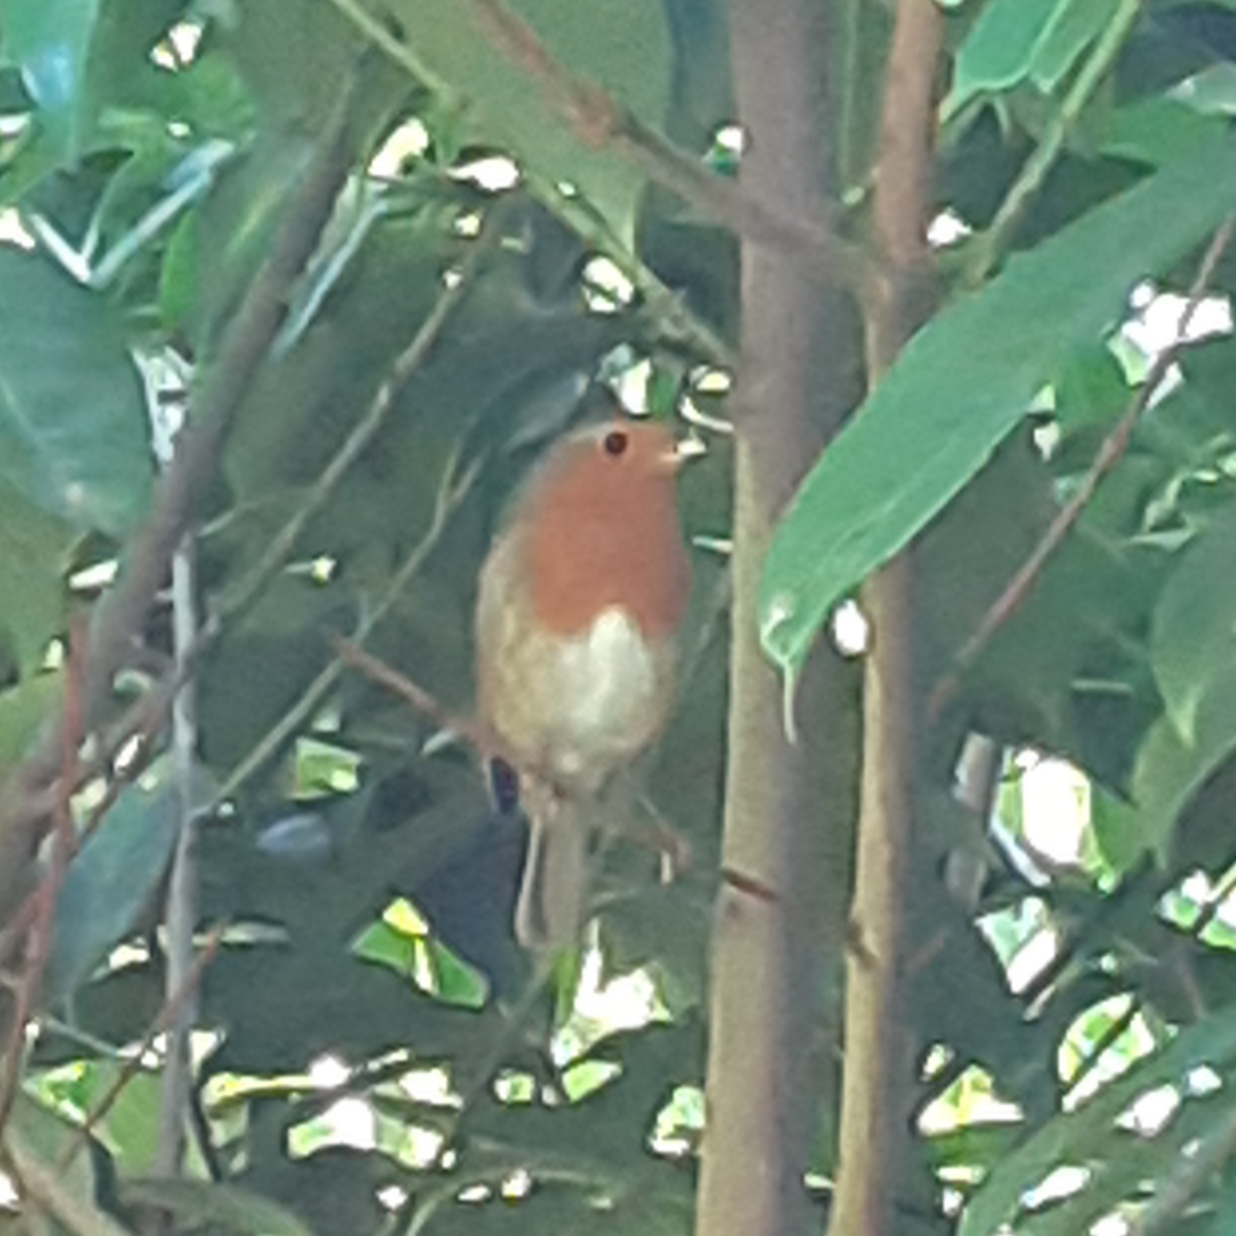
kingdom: Animalia
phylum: Chordata
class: Aves
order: Passeriformes
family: Muscicapidae
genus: Erithacus
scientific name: Erithacus rubecula
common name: European robin
